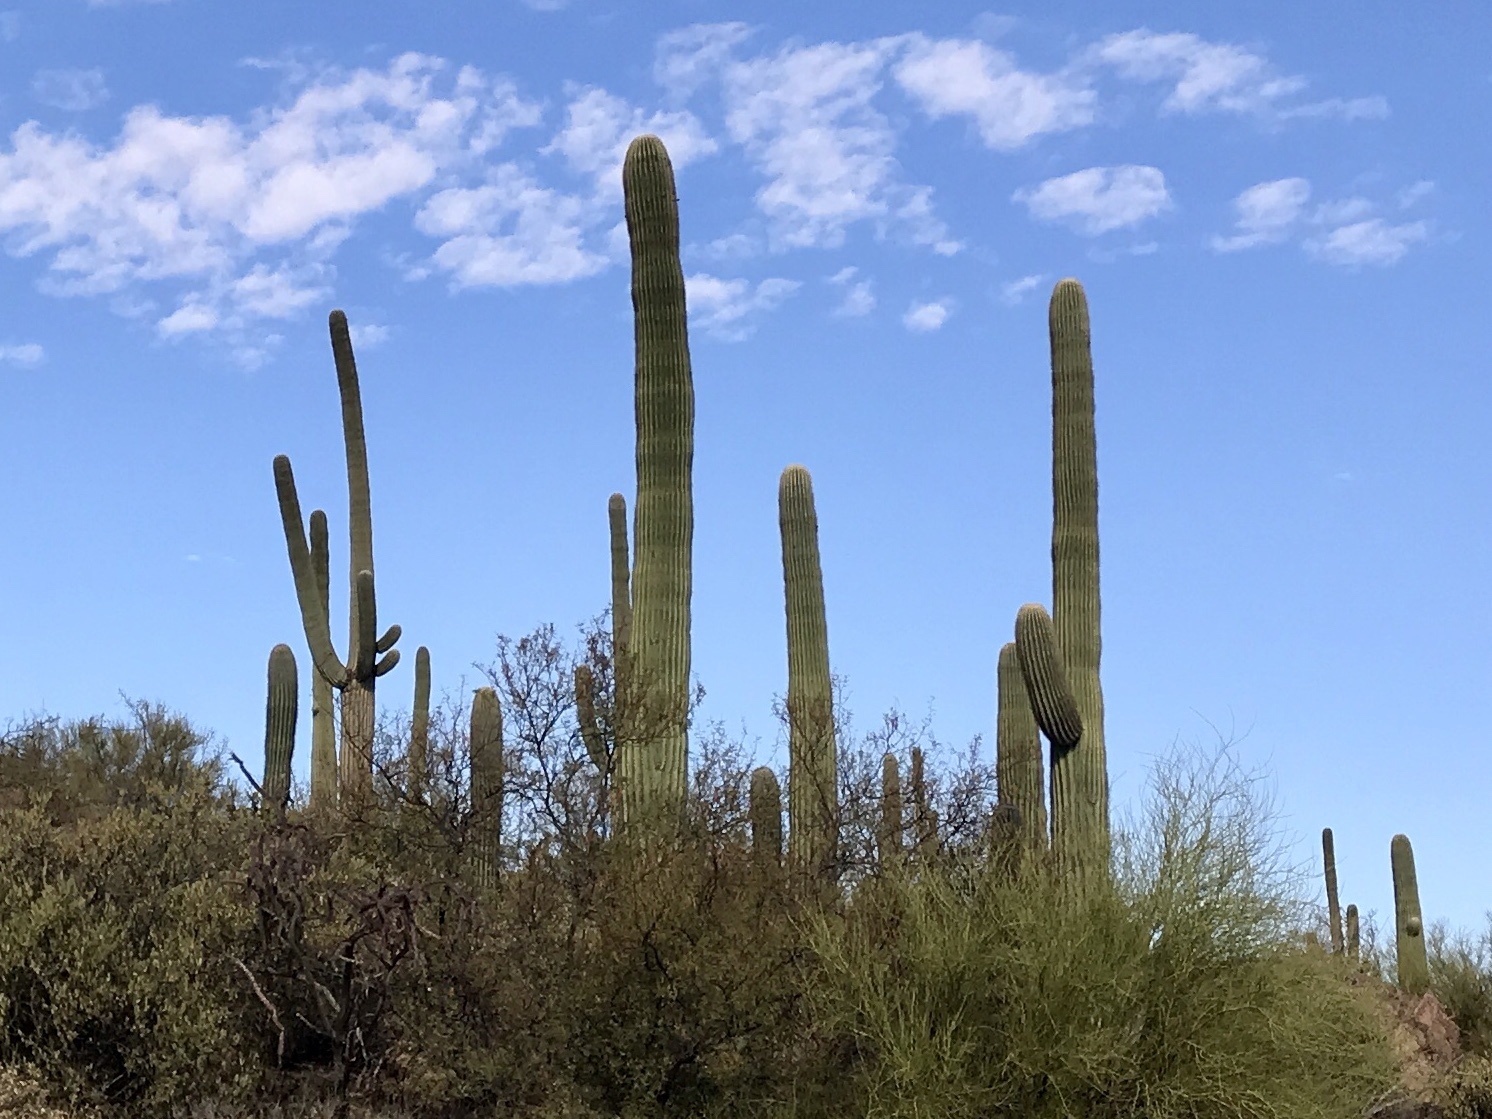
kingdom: Plantae
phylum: Tracheophyta
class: Magnoliopsida
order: Caryophyllales
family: Cactaceae
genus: Carnegiea
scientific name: Carnegiea gigantea
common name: Saguaro
